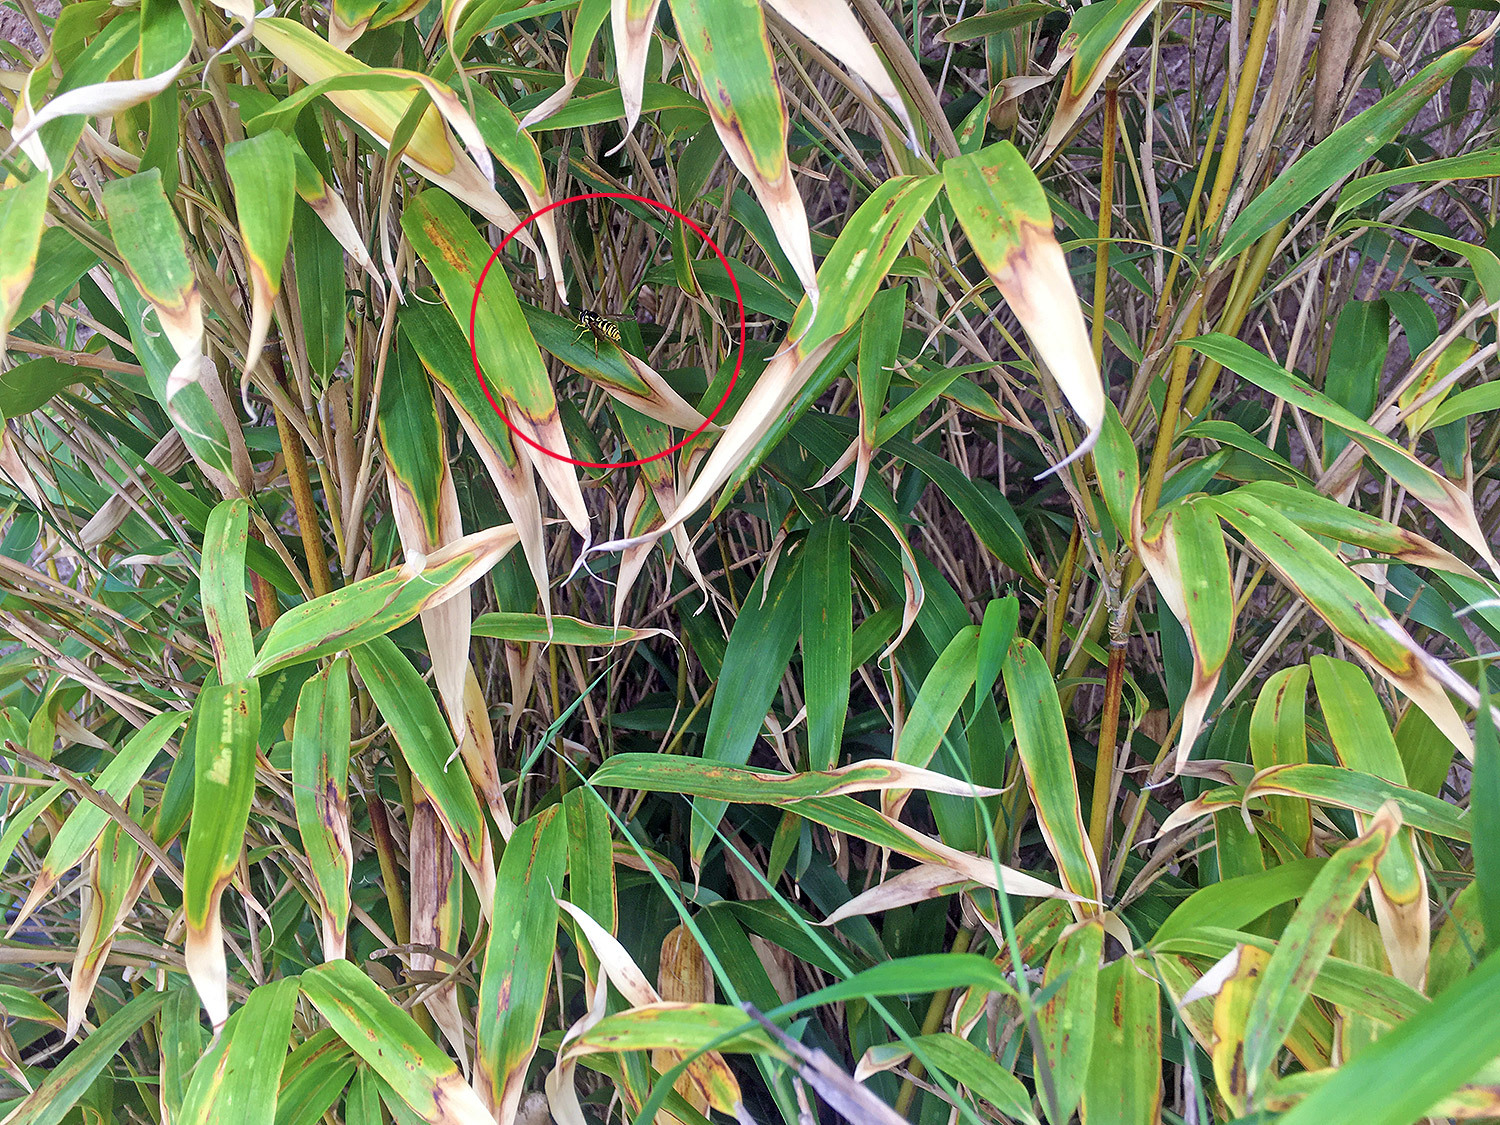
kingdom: Animalia
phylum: Arthropoda
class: Insecta
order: Diptera
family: Syrphidae
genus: Chrysotoxum
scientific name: Chrysotoxum cautum
